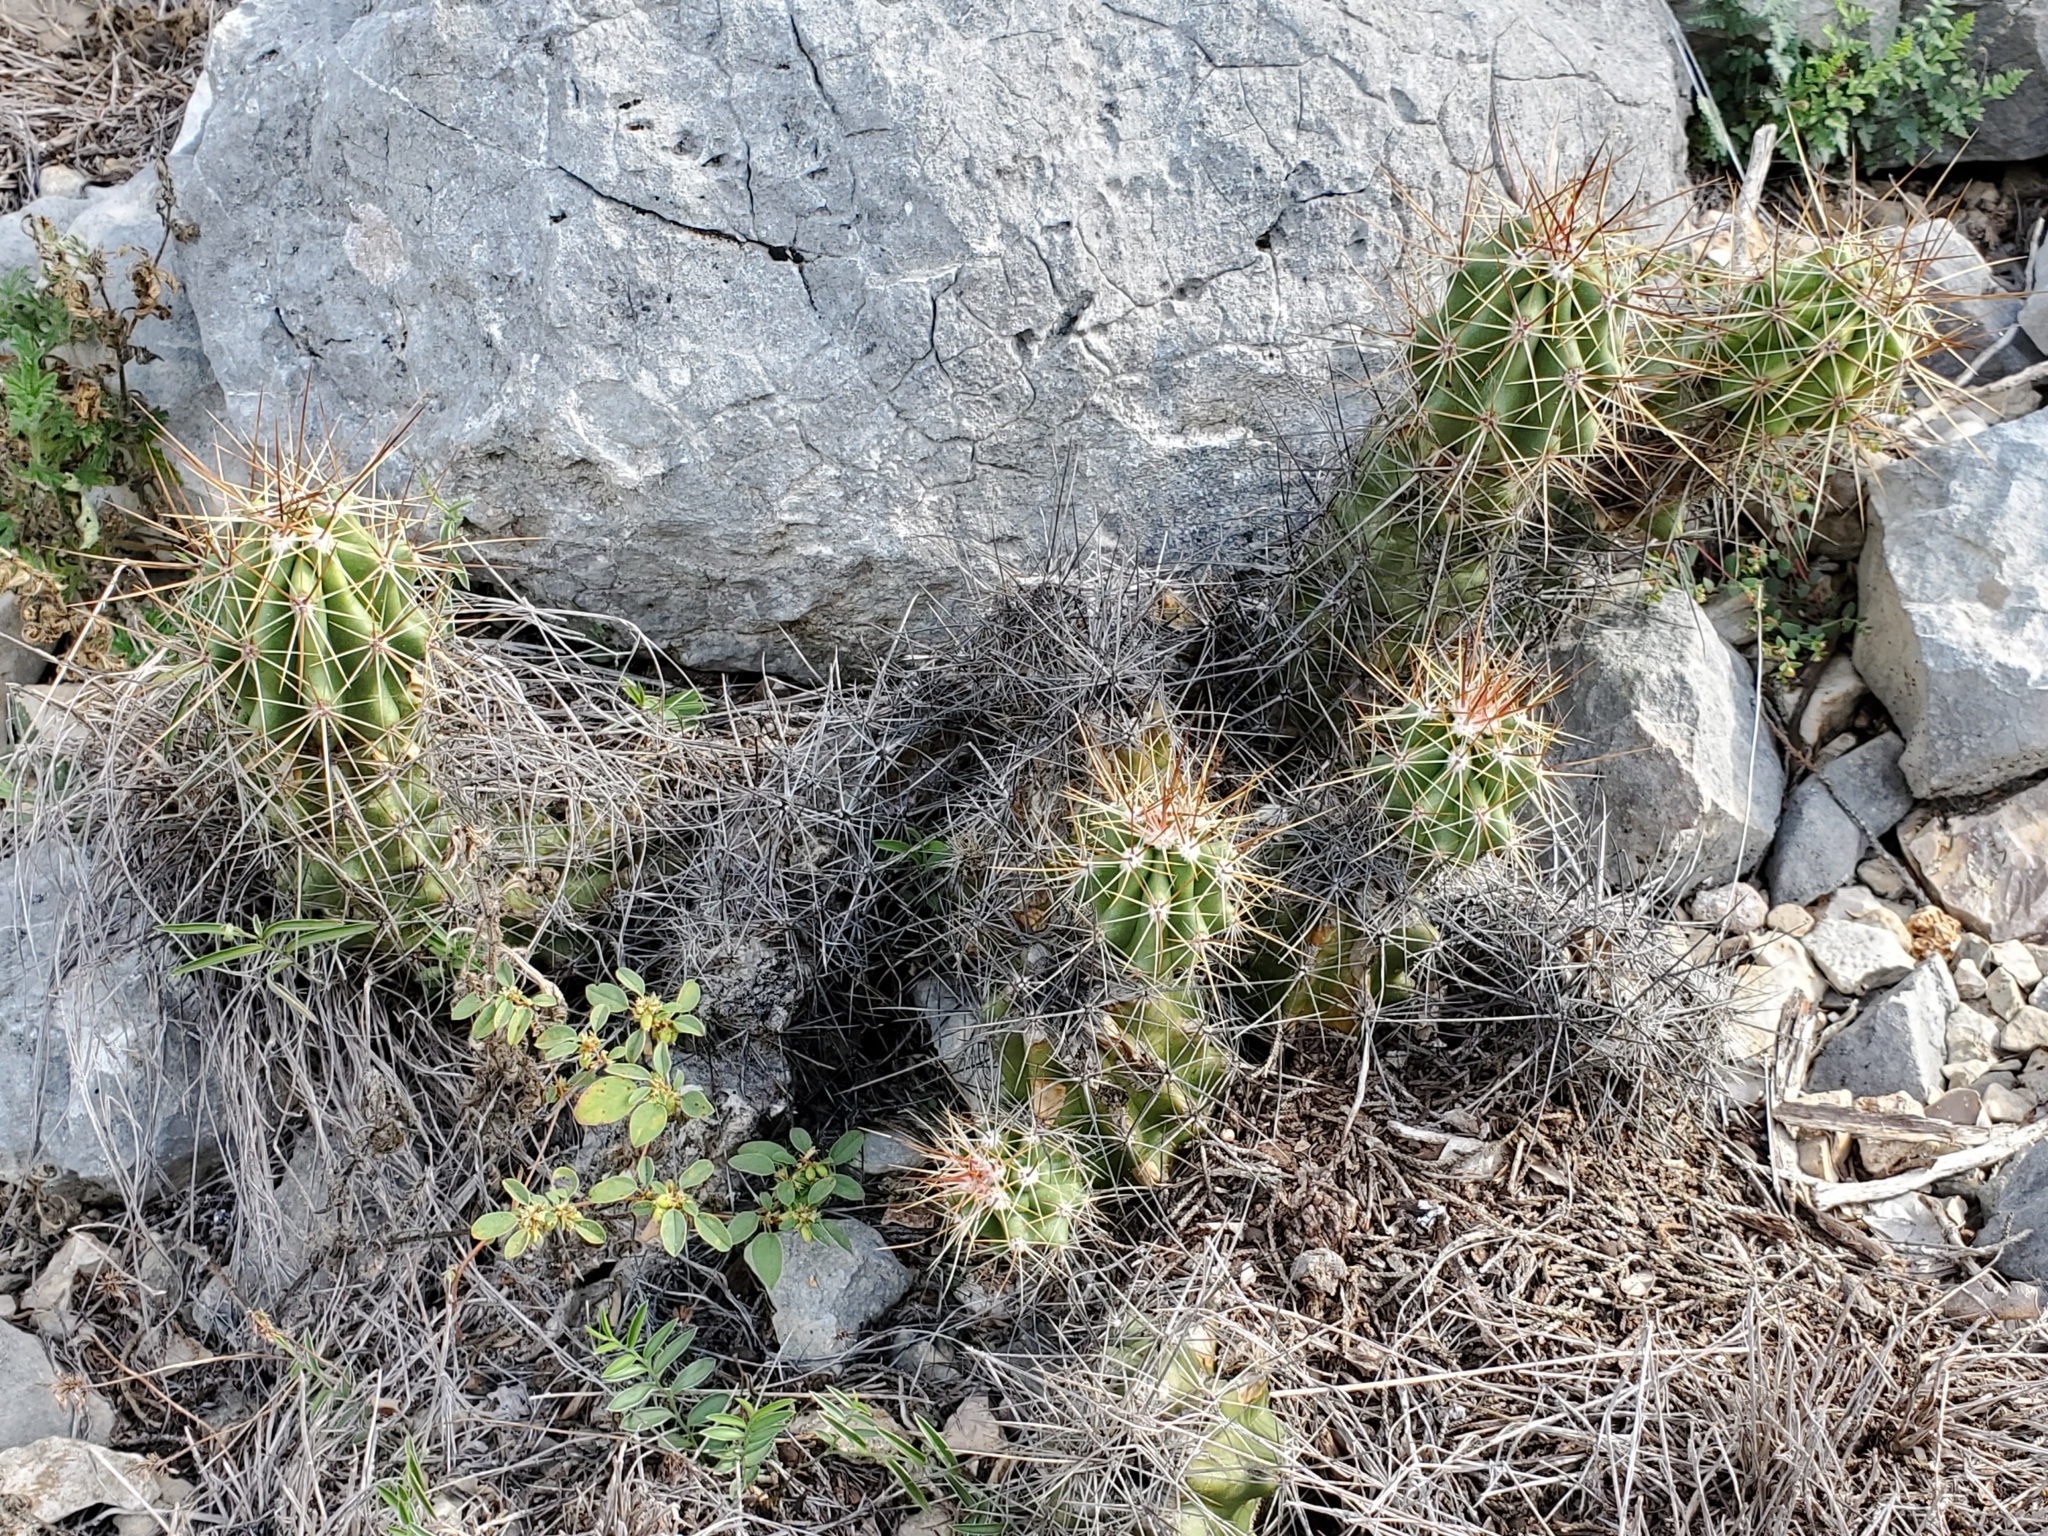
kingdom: Plantae
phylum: Tracheophyta
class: Magnoliopsida
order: Caryophyllales
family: Cactaceae
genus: Echinocereus
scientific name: Echinocereus enneacanthus
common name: Pitaya
